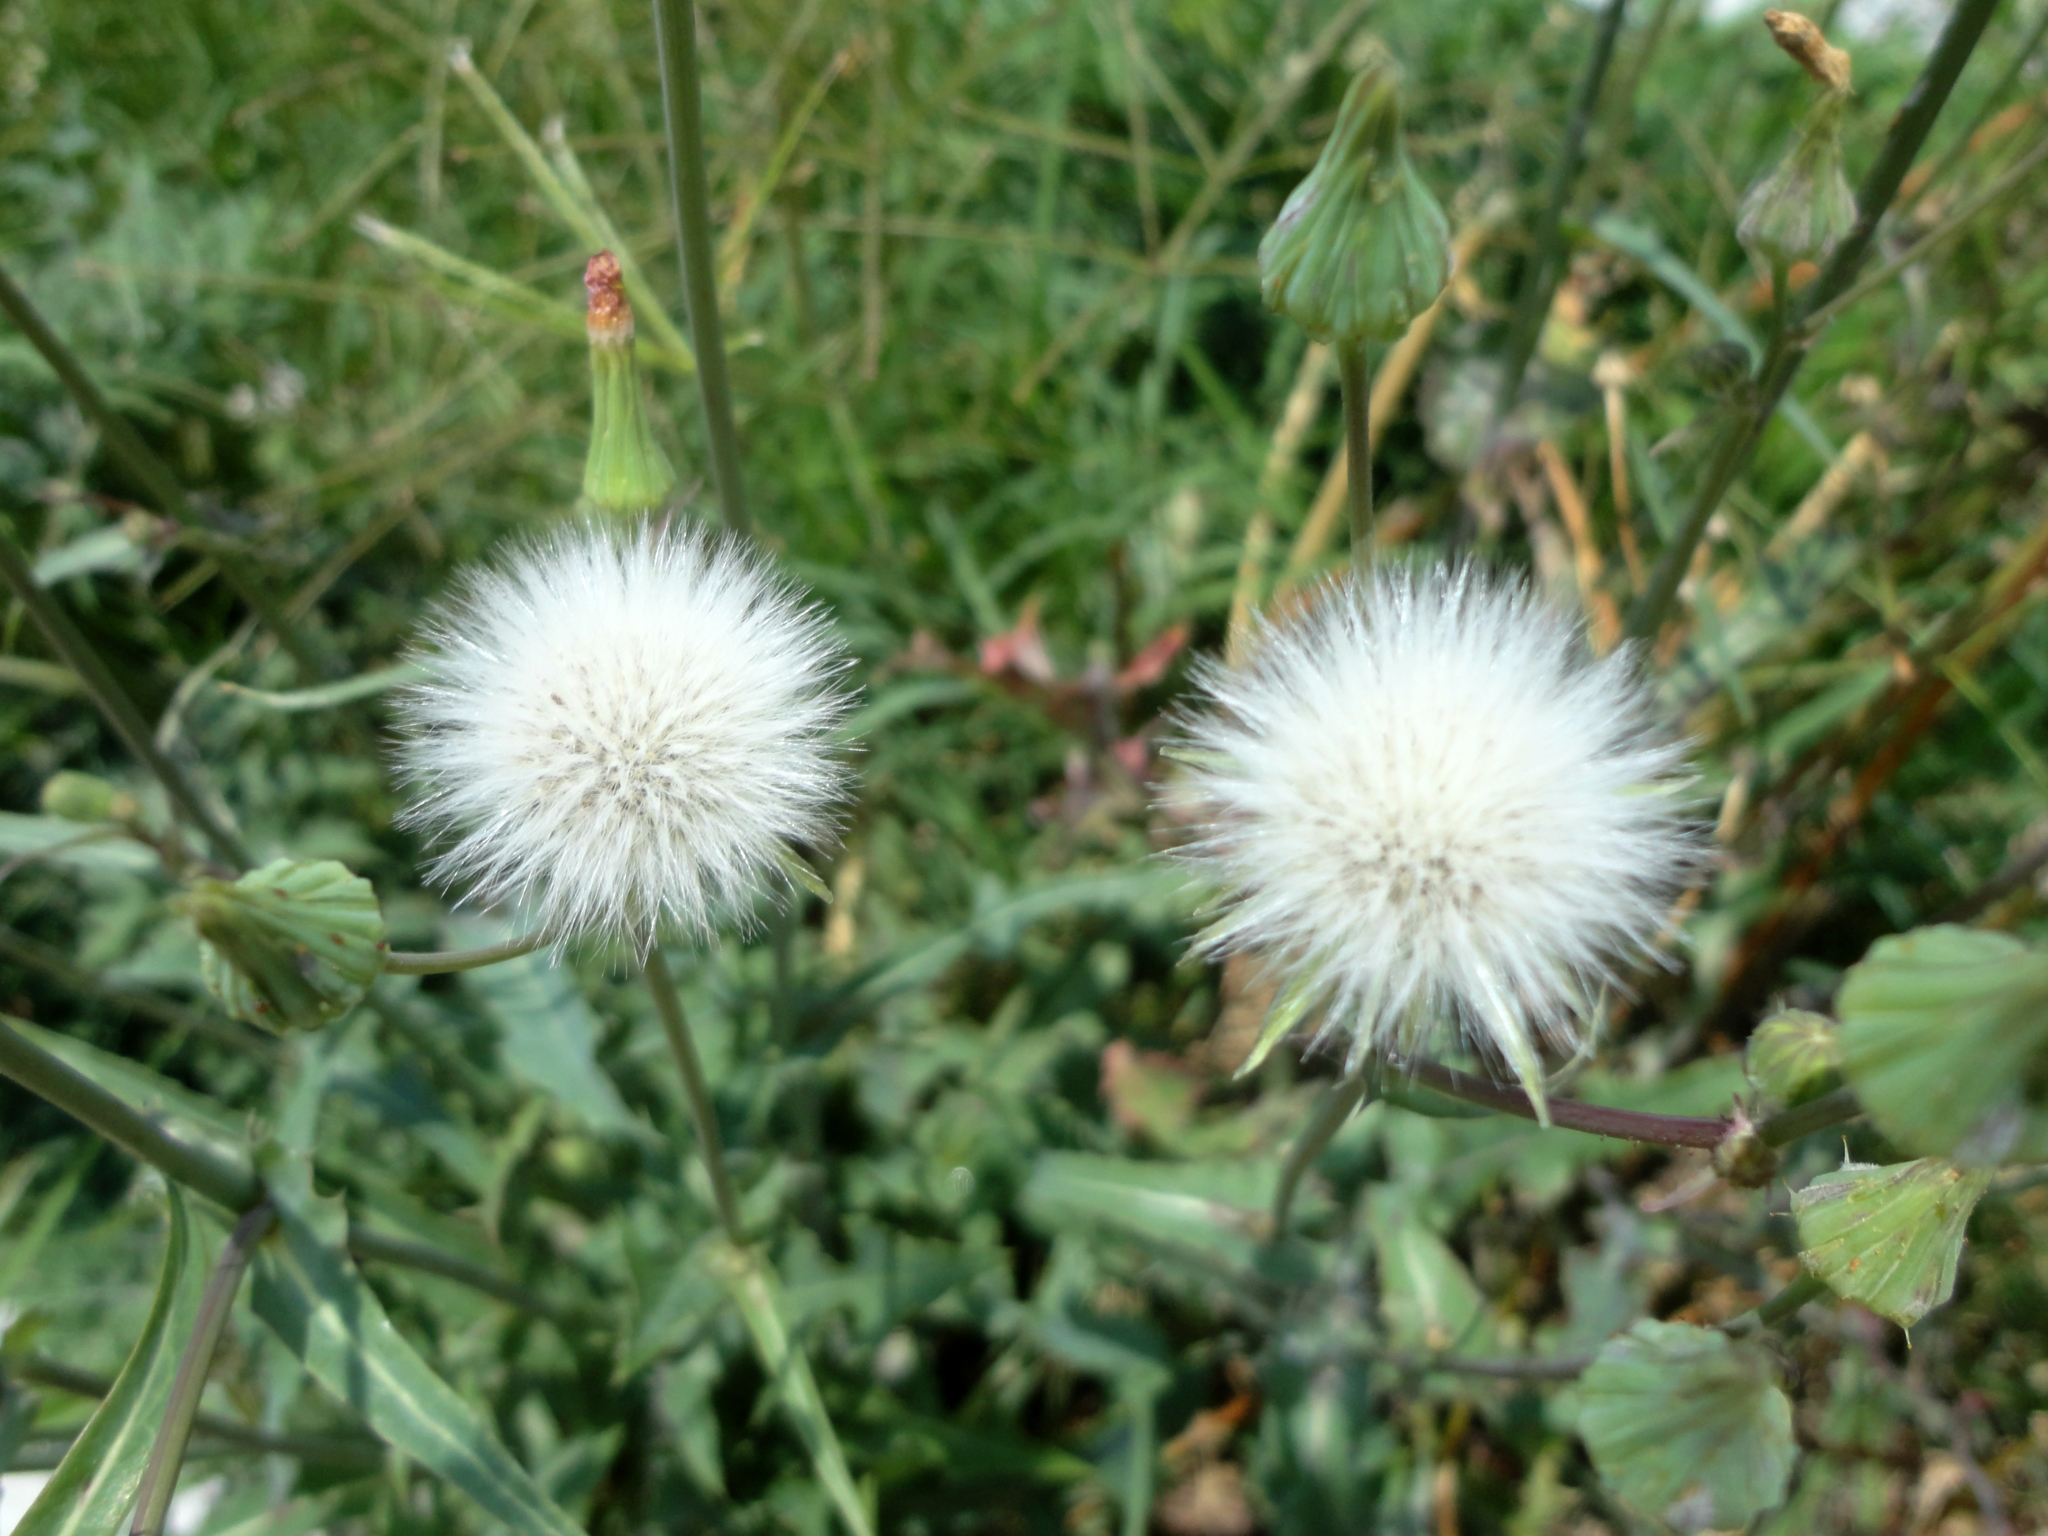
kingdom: Plantae
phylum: Tracheophyta
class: Magnoliopsida
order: Asterales
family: Asteraceae
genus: Sonchus
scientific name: Sonchus oleraceus
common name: Common sowthistle
